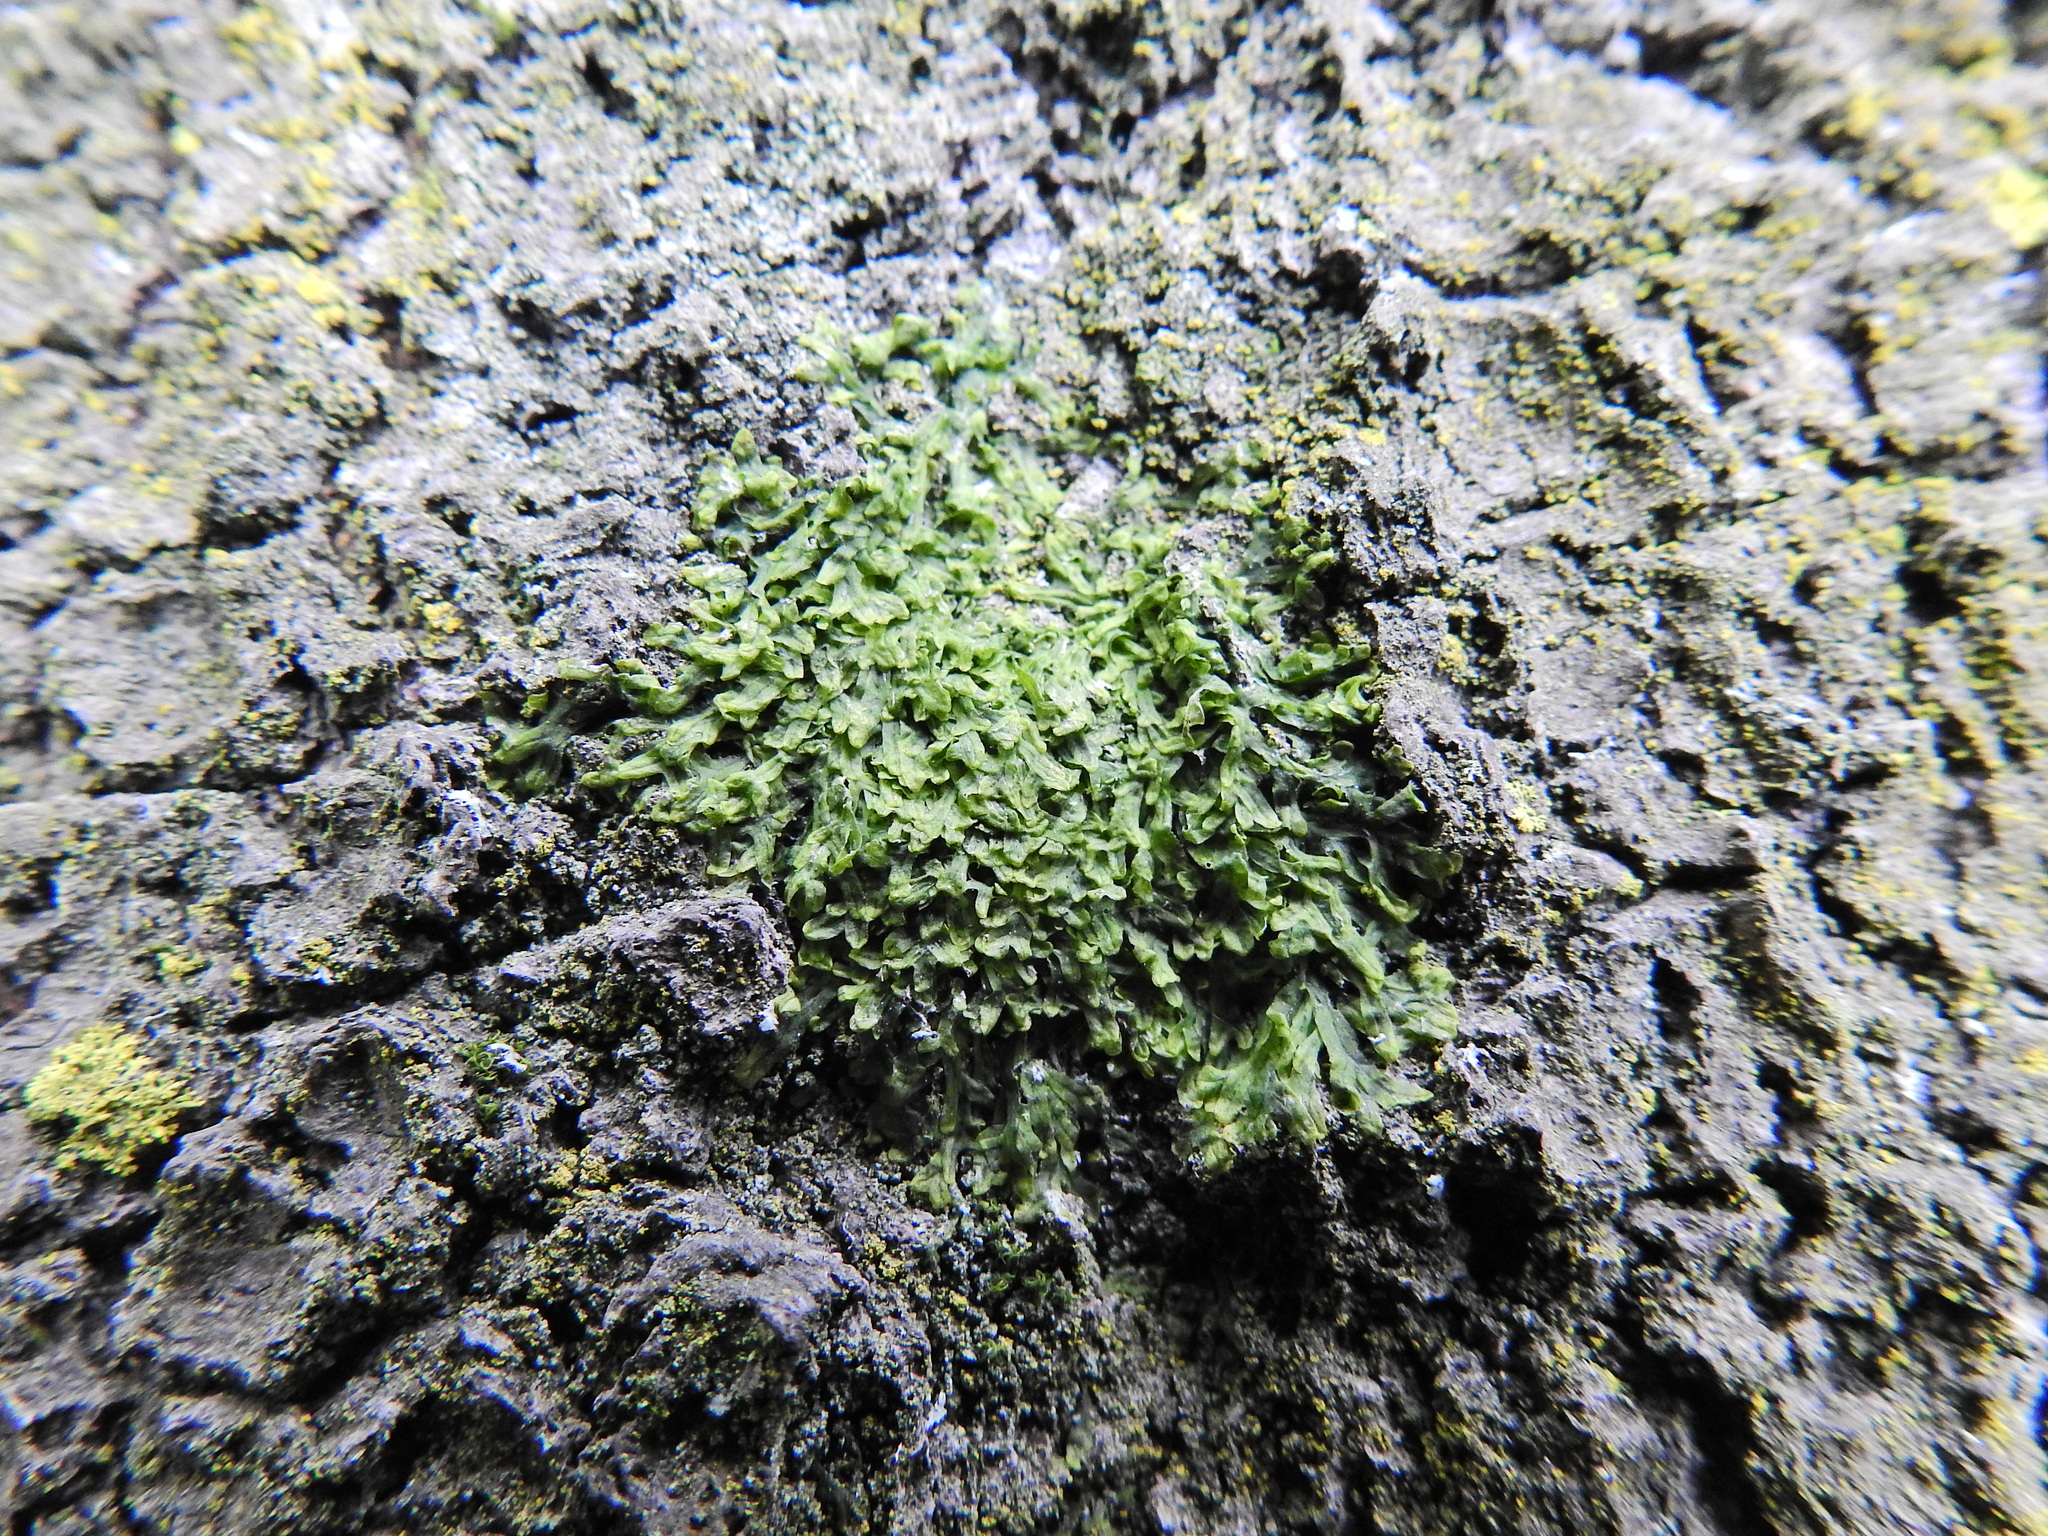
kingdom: Plantae
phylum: Marchantiophyta
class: Jungermanniopsida
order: Metzgeriales
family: Metzgeriaceae
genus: Metzgeria
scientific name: Metzgeria furcata
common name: Forked veilwort
